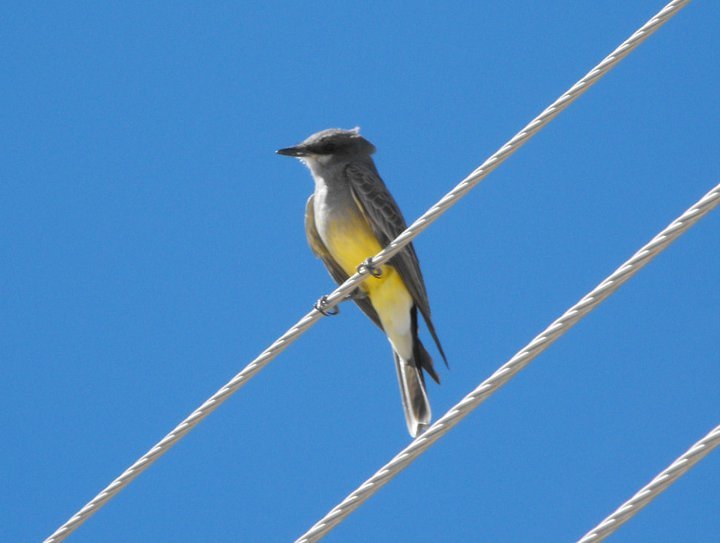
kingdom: Animalia
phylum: Chordata
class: Aves
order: Passeriformes
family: Tyrannidae
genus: Tyrannus
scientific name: Tyrannus vociferans
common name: Cassin's kingbird
